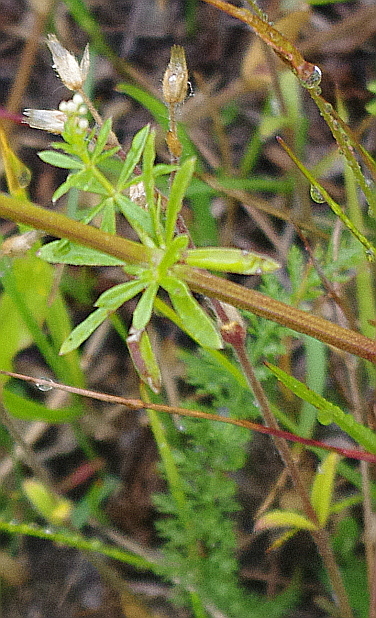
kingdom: Plantae
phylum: Tracheophyta
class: Magnoliopsida
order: Caryophyllales
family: Caryophyllaceae
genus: Cerastium
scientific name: Cerastium holosteoides
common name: Big chickweed
